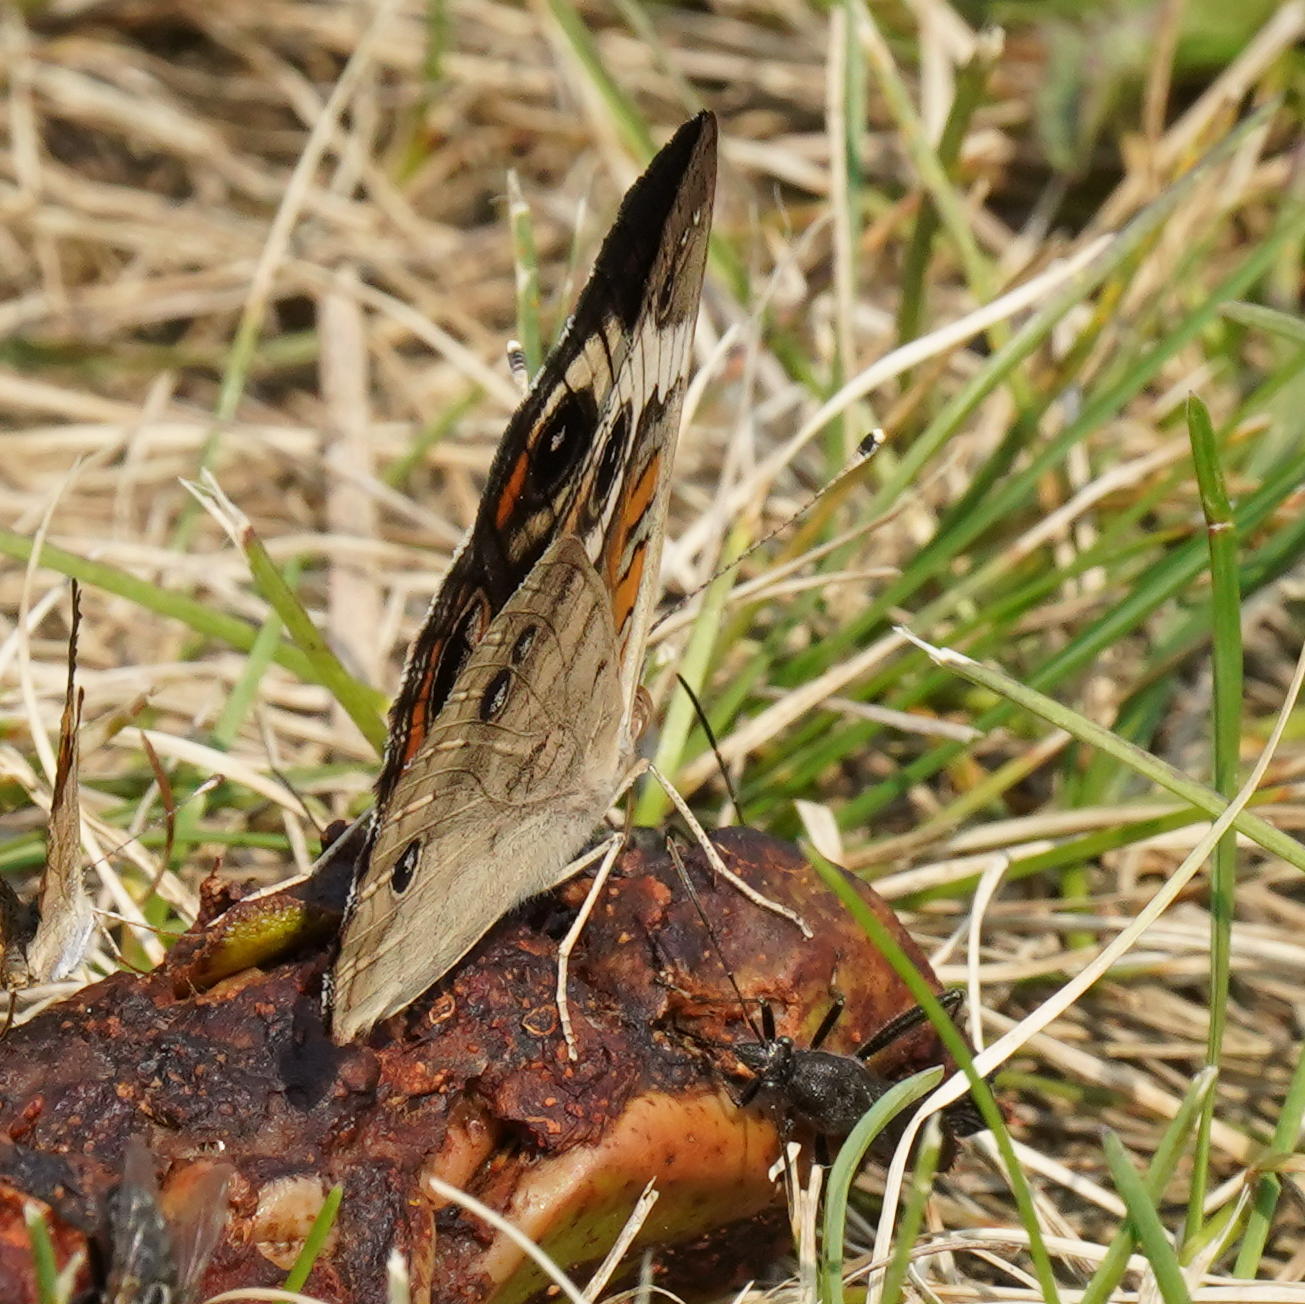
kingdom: Animalia
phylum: Arthropoda
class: Insecta
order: Lepidoptera
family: Nymphalidae
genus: Junonia
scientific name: Junonia coenia
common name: Common buckeye
